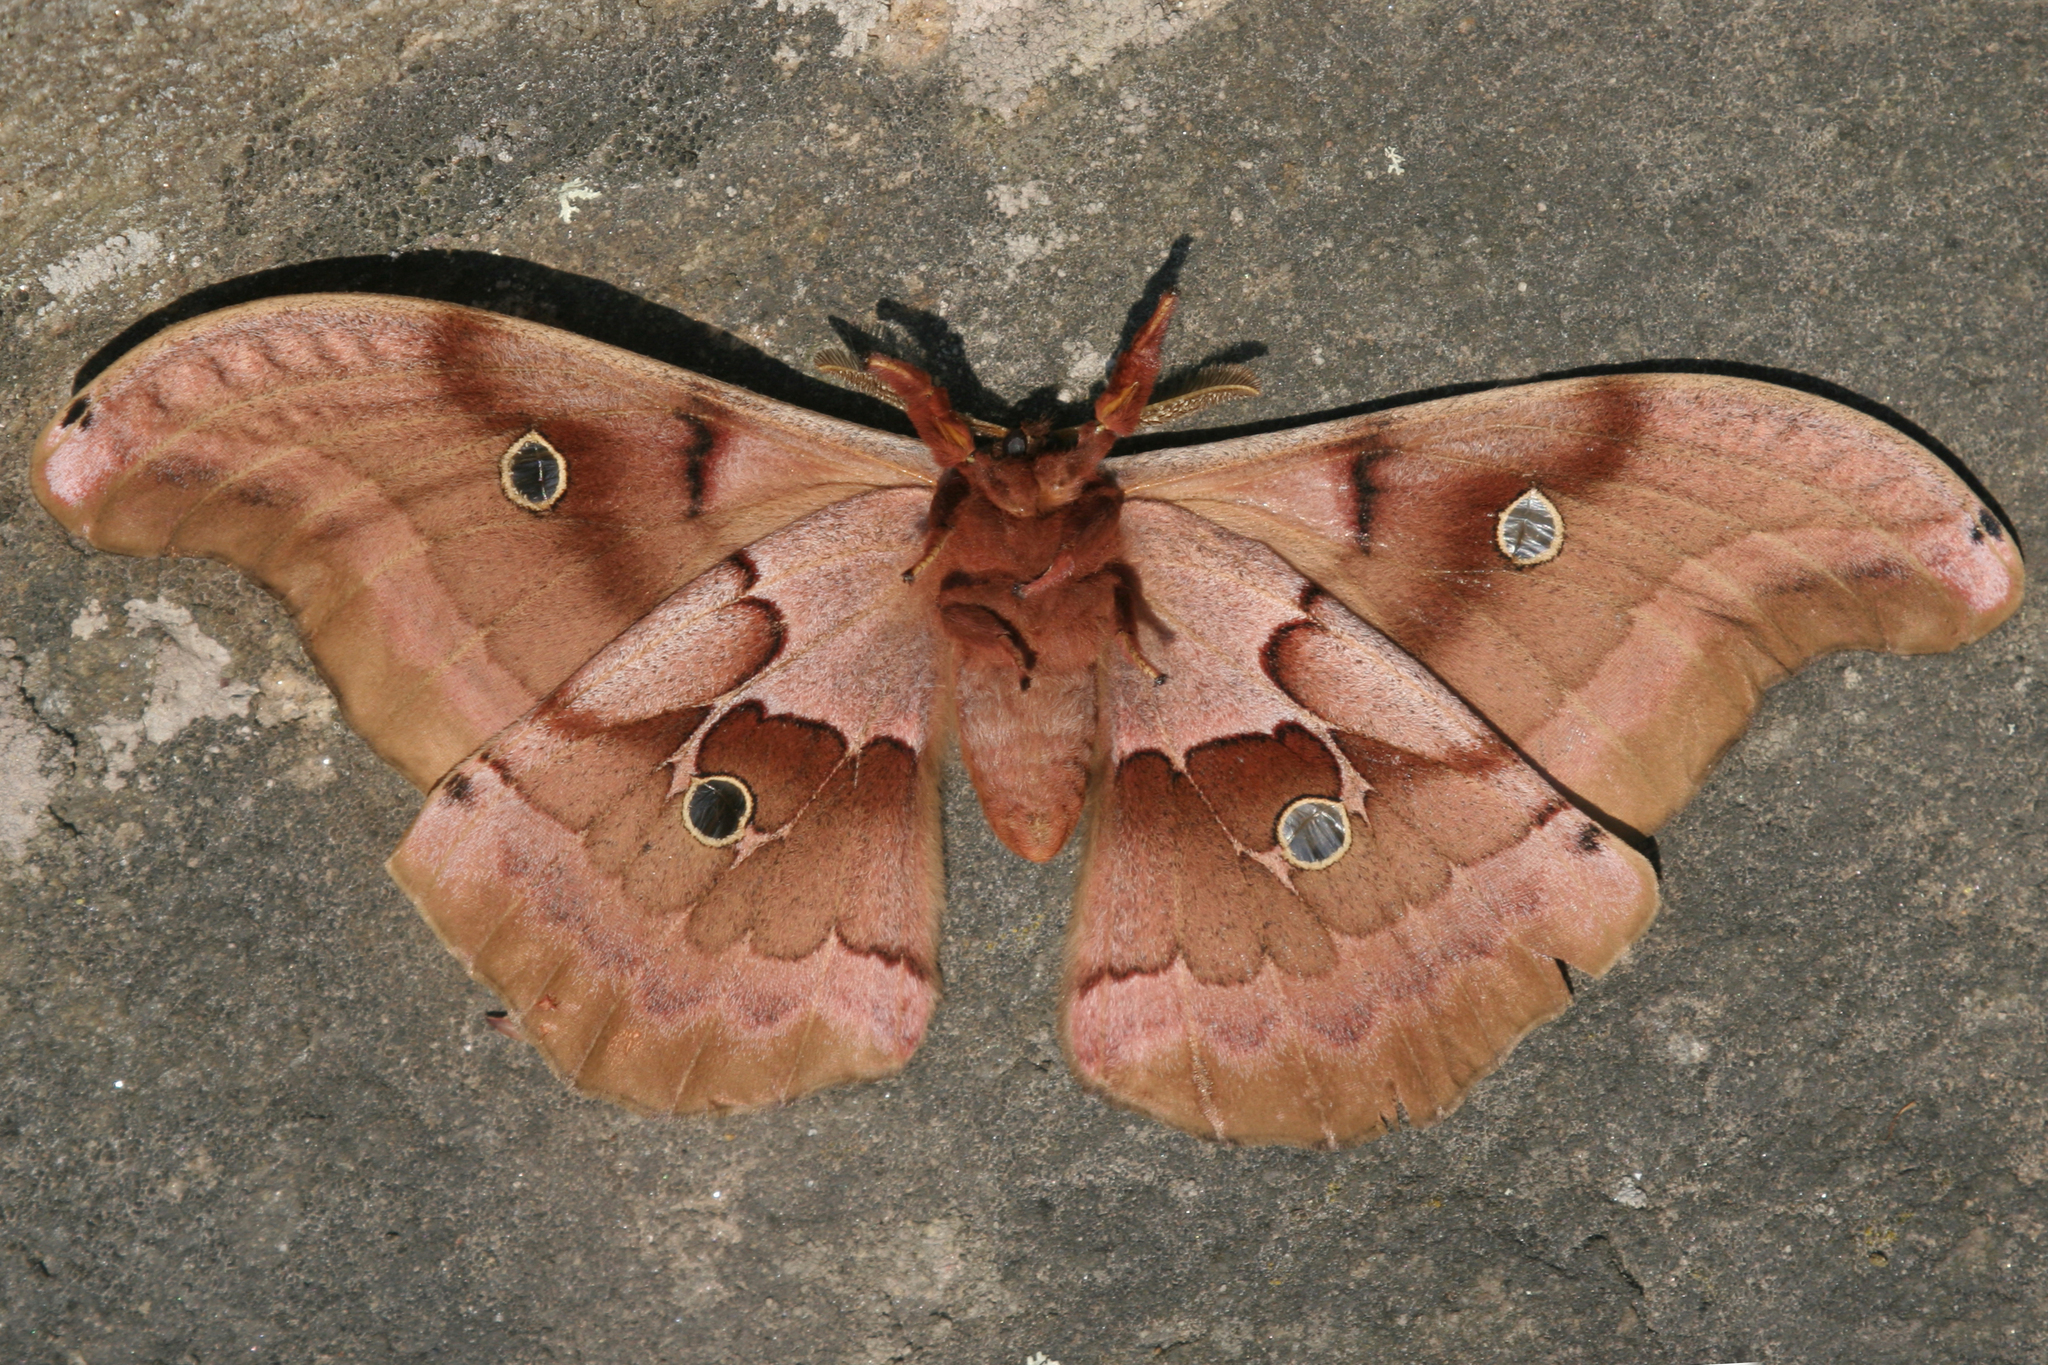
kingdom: Animalia
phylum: Arthropoda
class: Insecta
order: Lepidoptera
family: Saturniidae
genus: Antheraea
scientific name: Antheraea polyphemus
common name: Polyphemus moth
